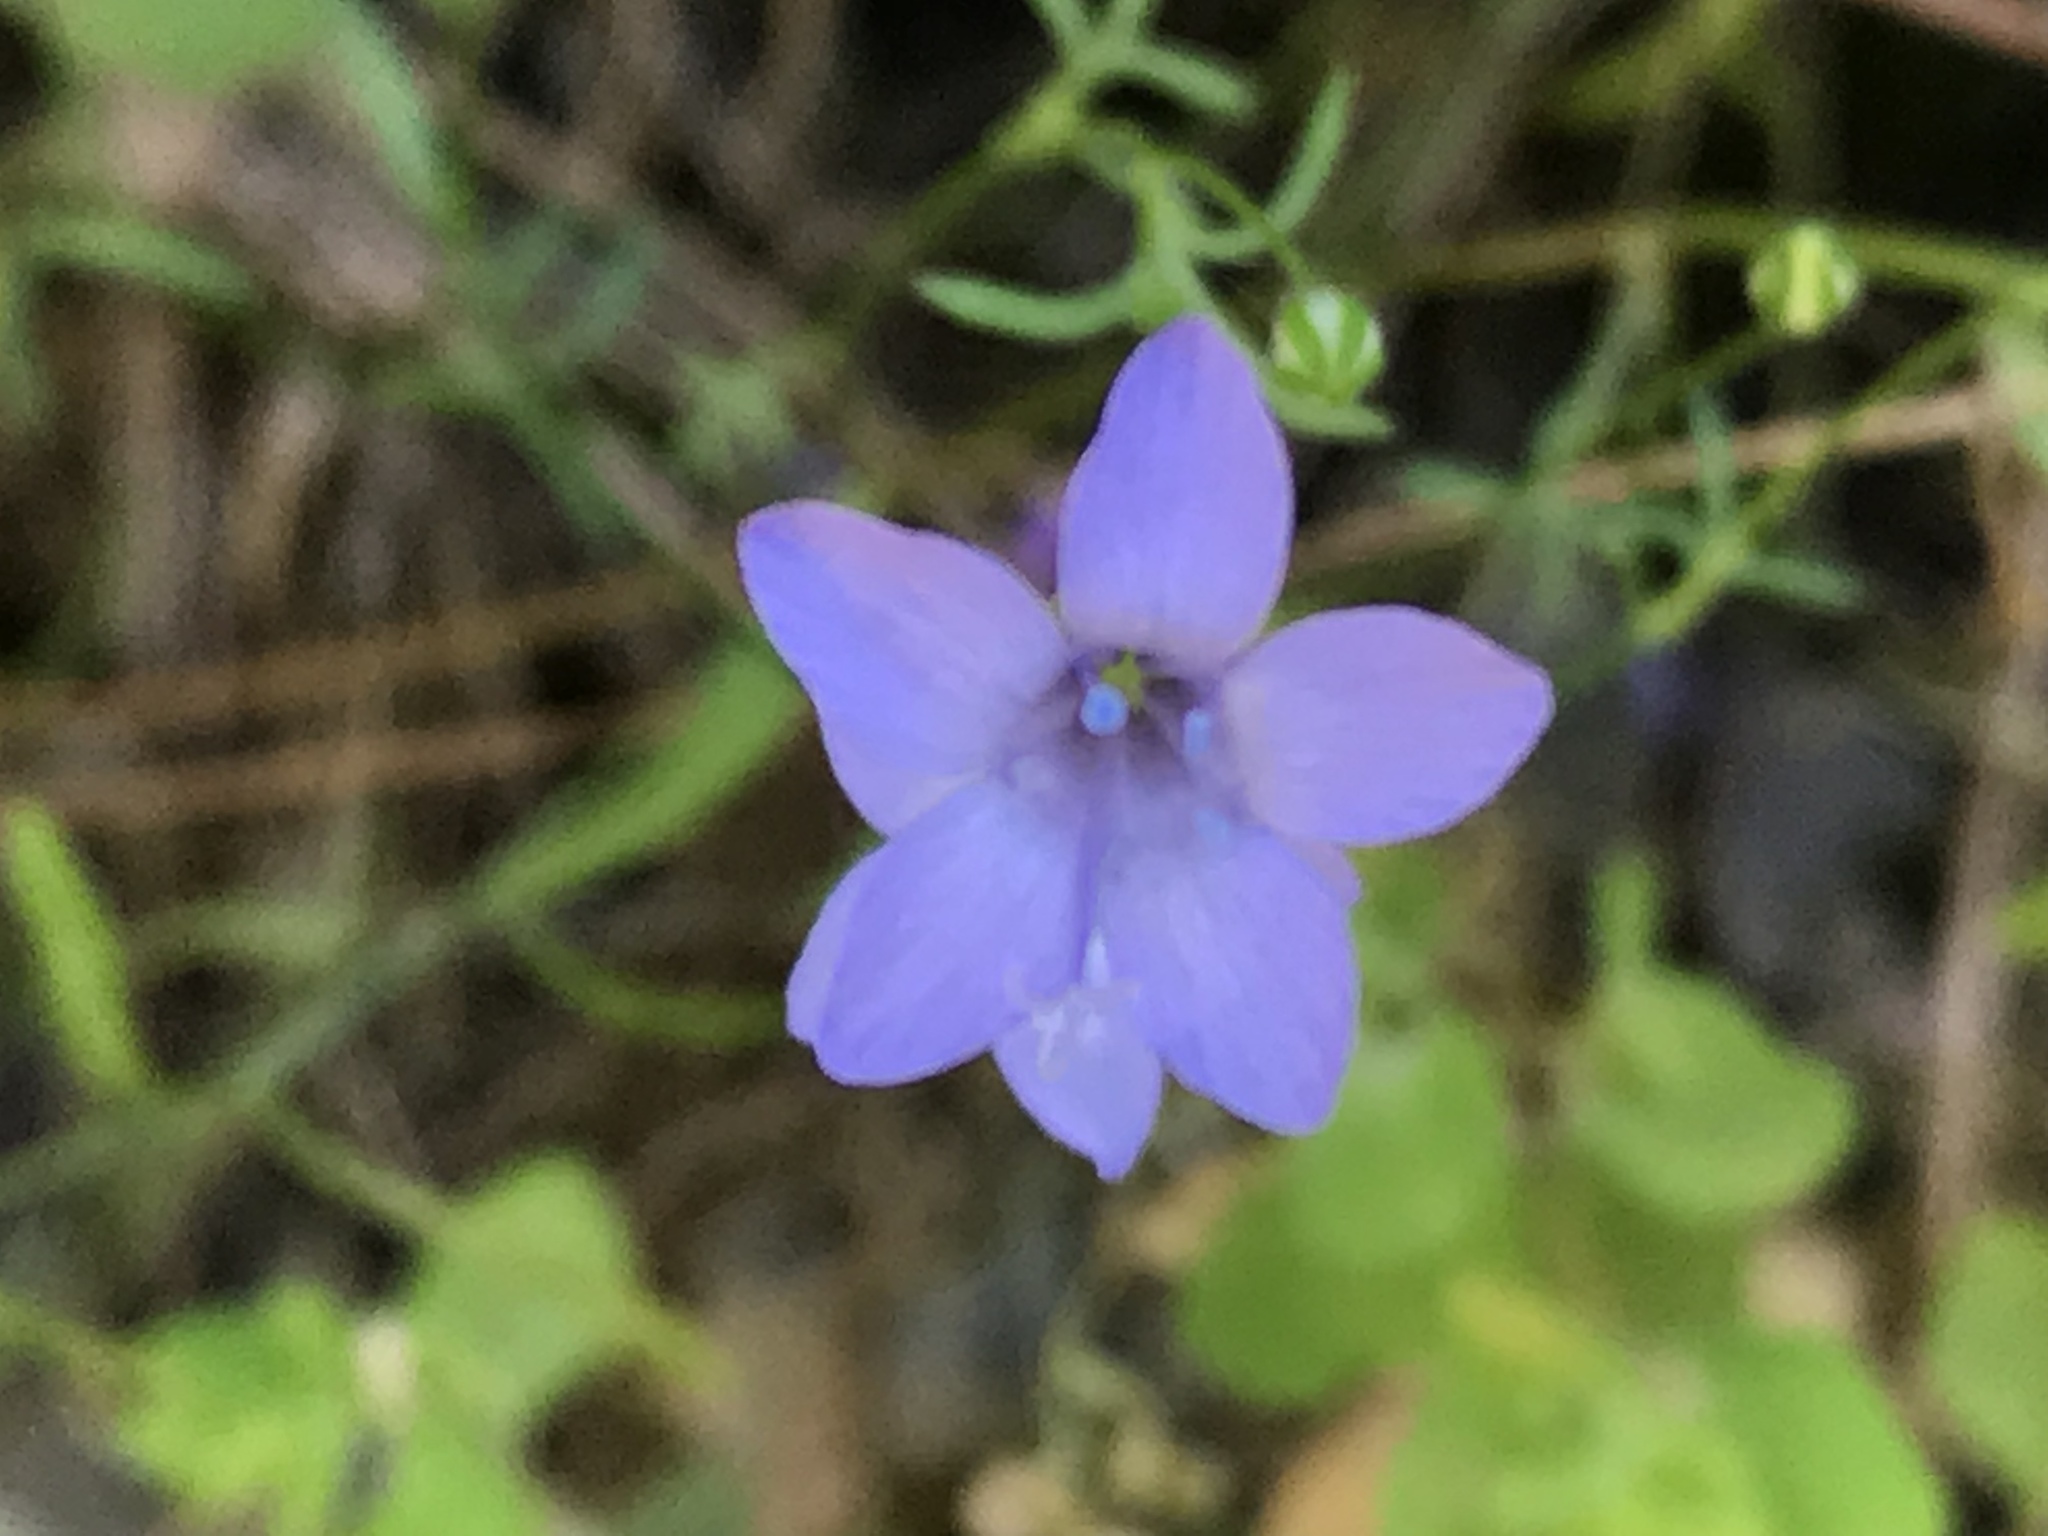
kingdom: Plantae
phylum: Tracheophyta
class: Magnoliopsida
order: Ericales
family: Polemoniaceae
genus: Gilia
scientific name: Gilia achilleifolia
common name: California gily-flower
